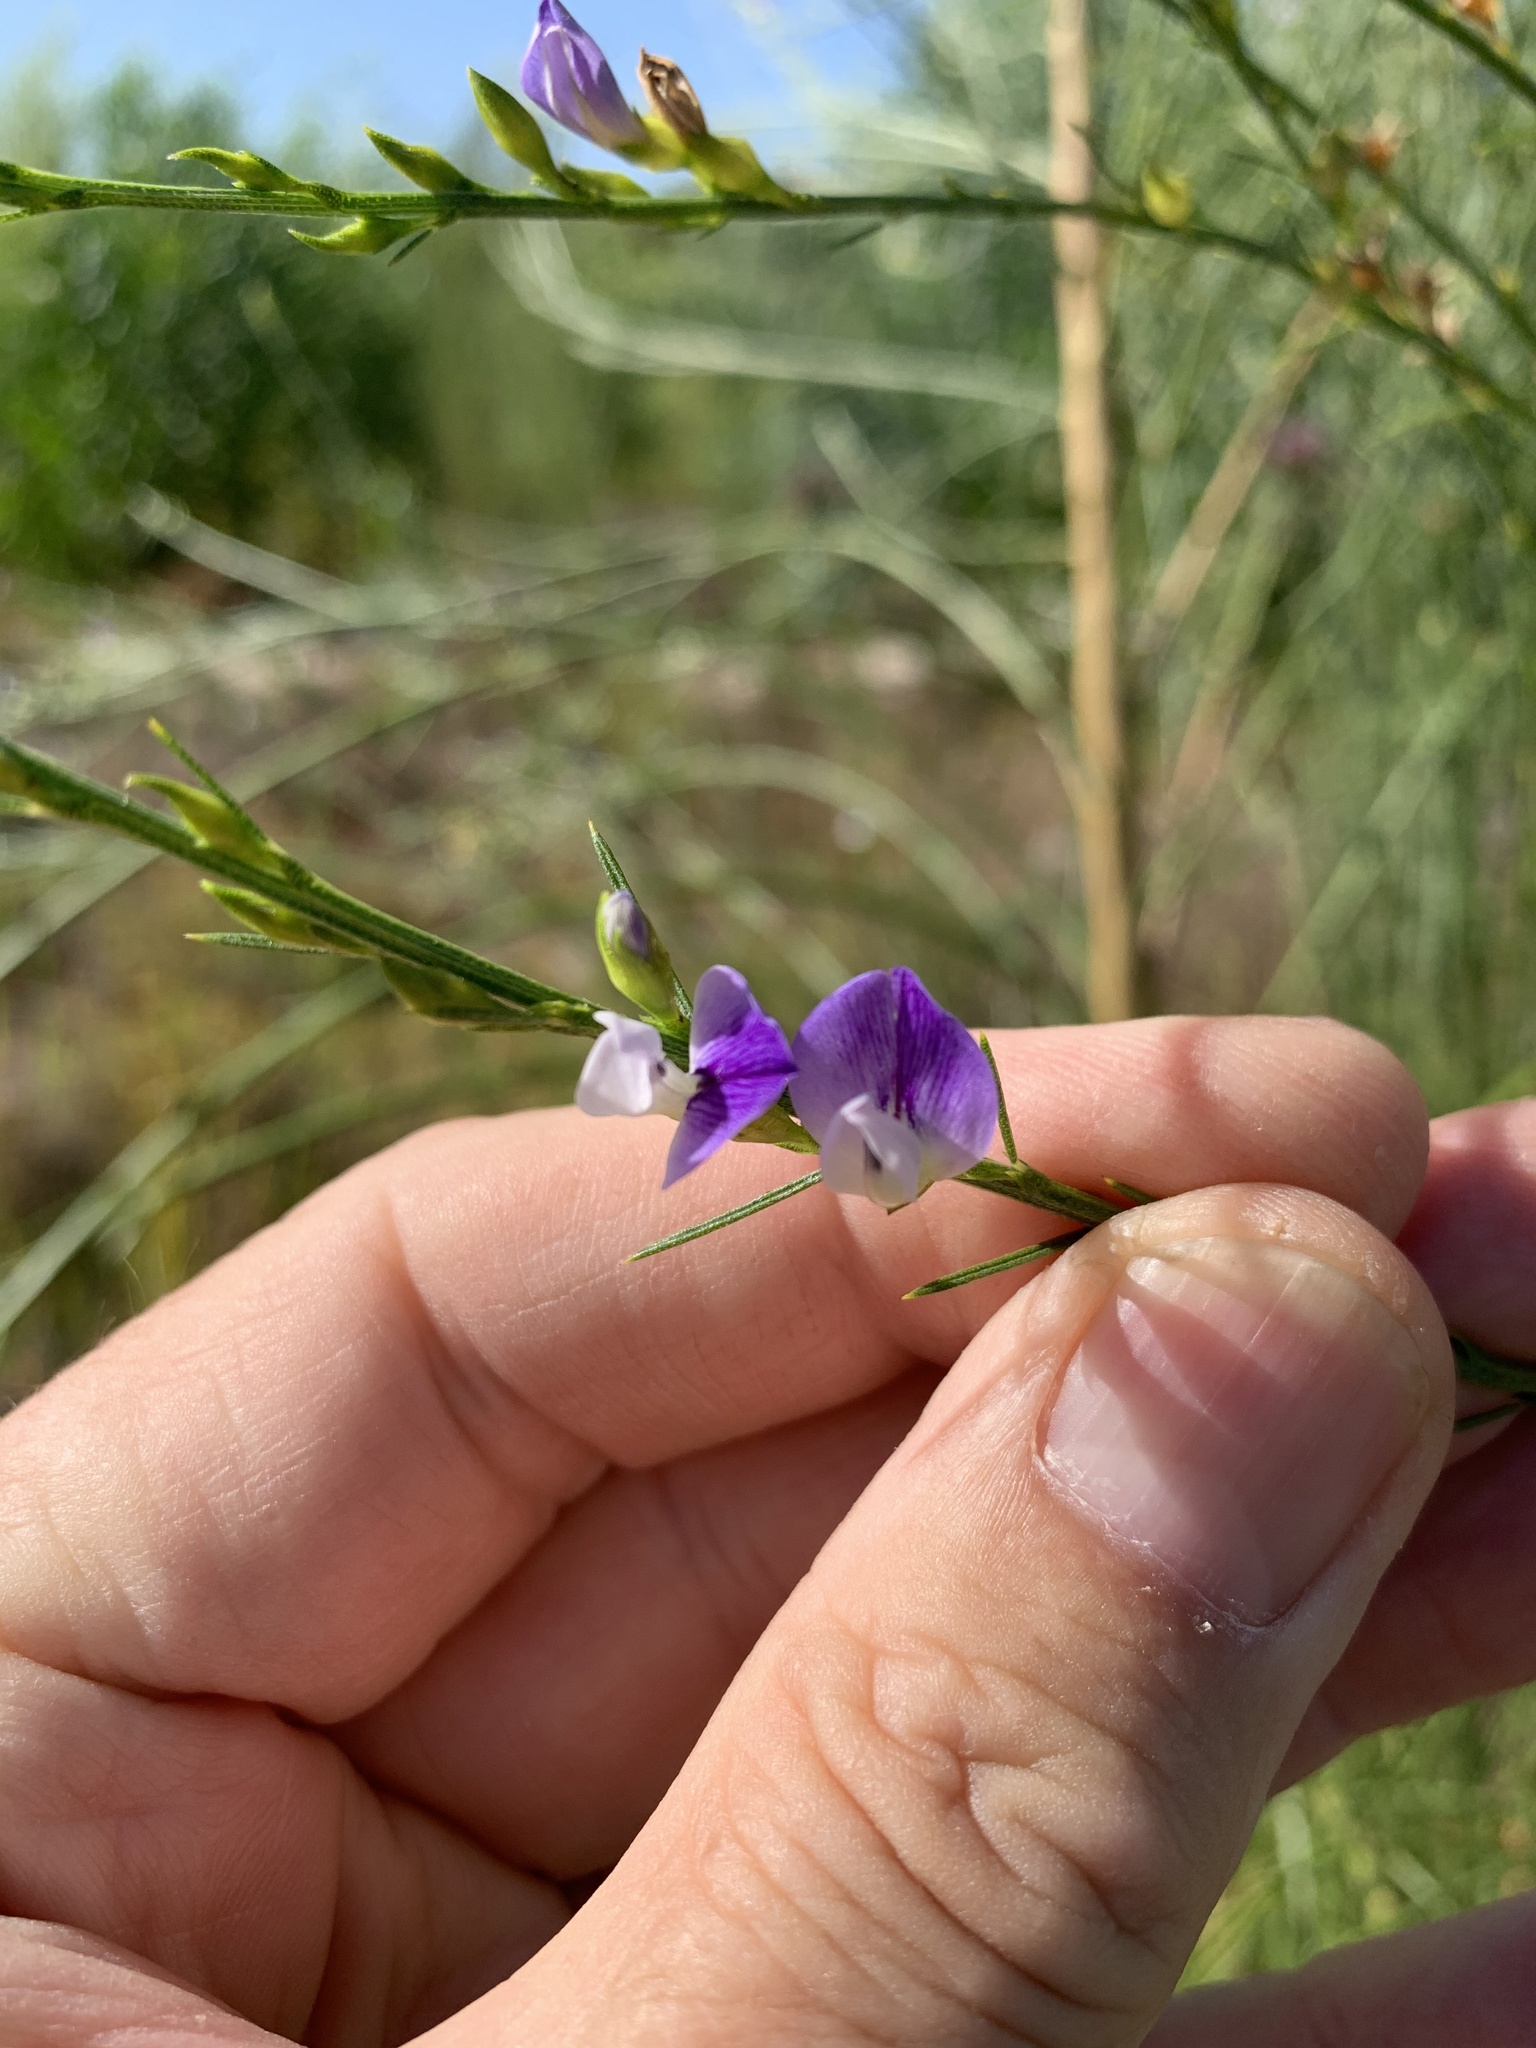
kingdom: Plantae
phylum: Tracheophyta
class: Magnoliopsida
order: Fabales
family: Fabaceae
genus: Psoralea
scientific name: Psoralea filifolia
